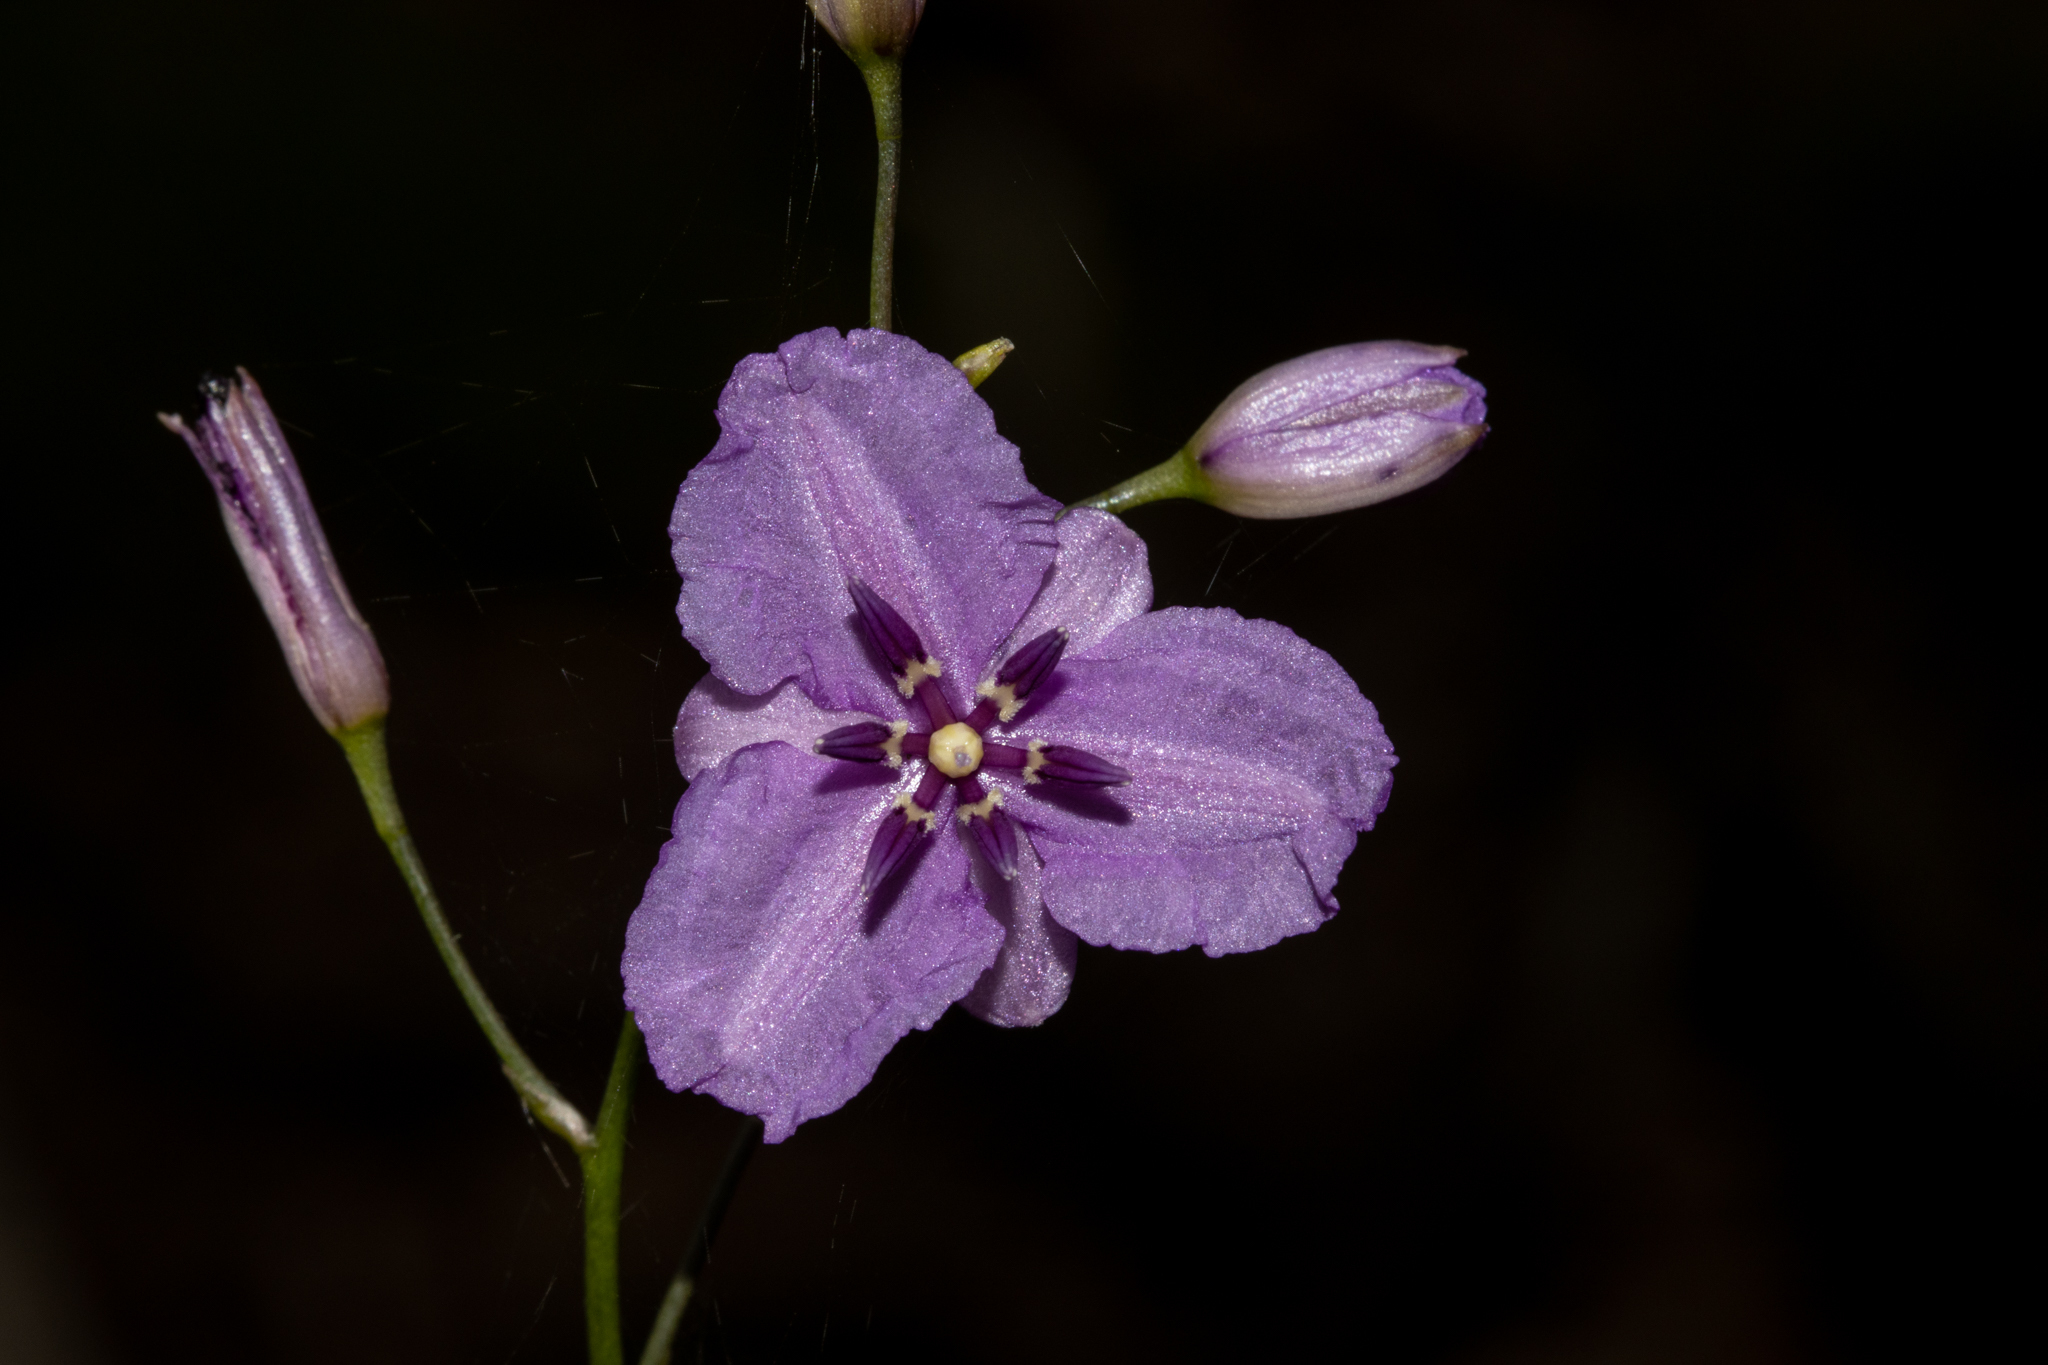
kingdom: Plantae
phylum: Tracheophyta
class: Liliopsida
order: Asparagales
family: Asparagaceae
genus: Arthropodium
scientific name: Arthropodium strictum
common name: Chocolate-lily
